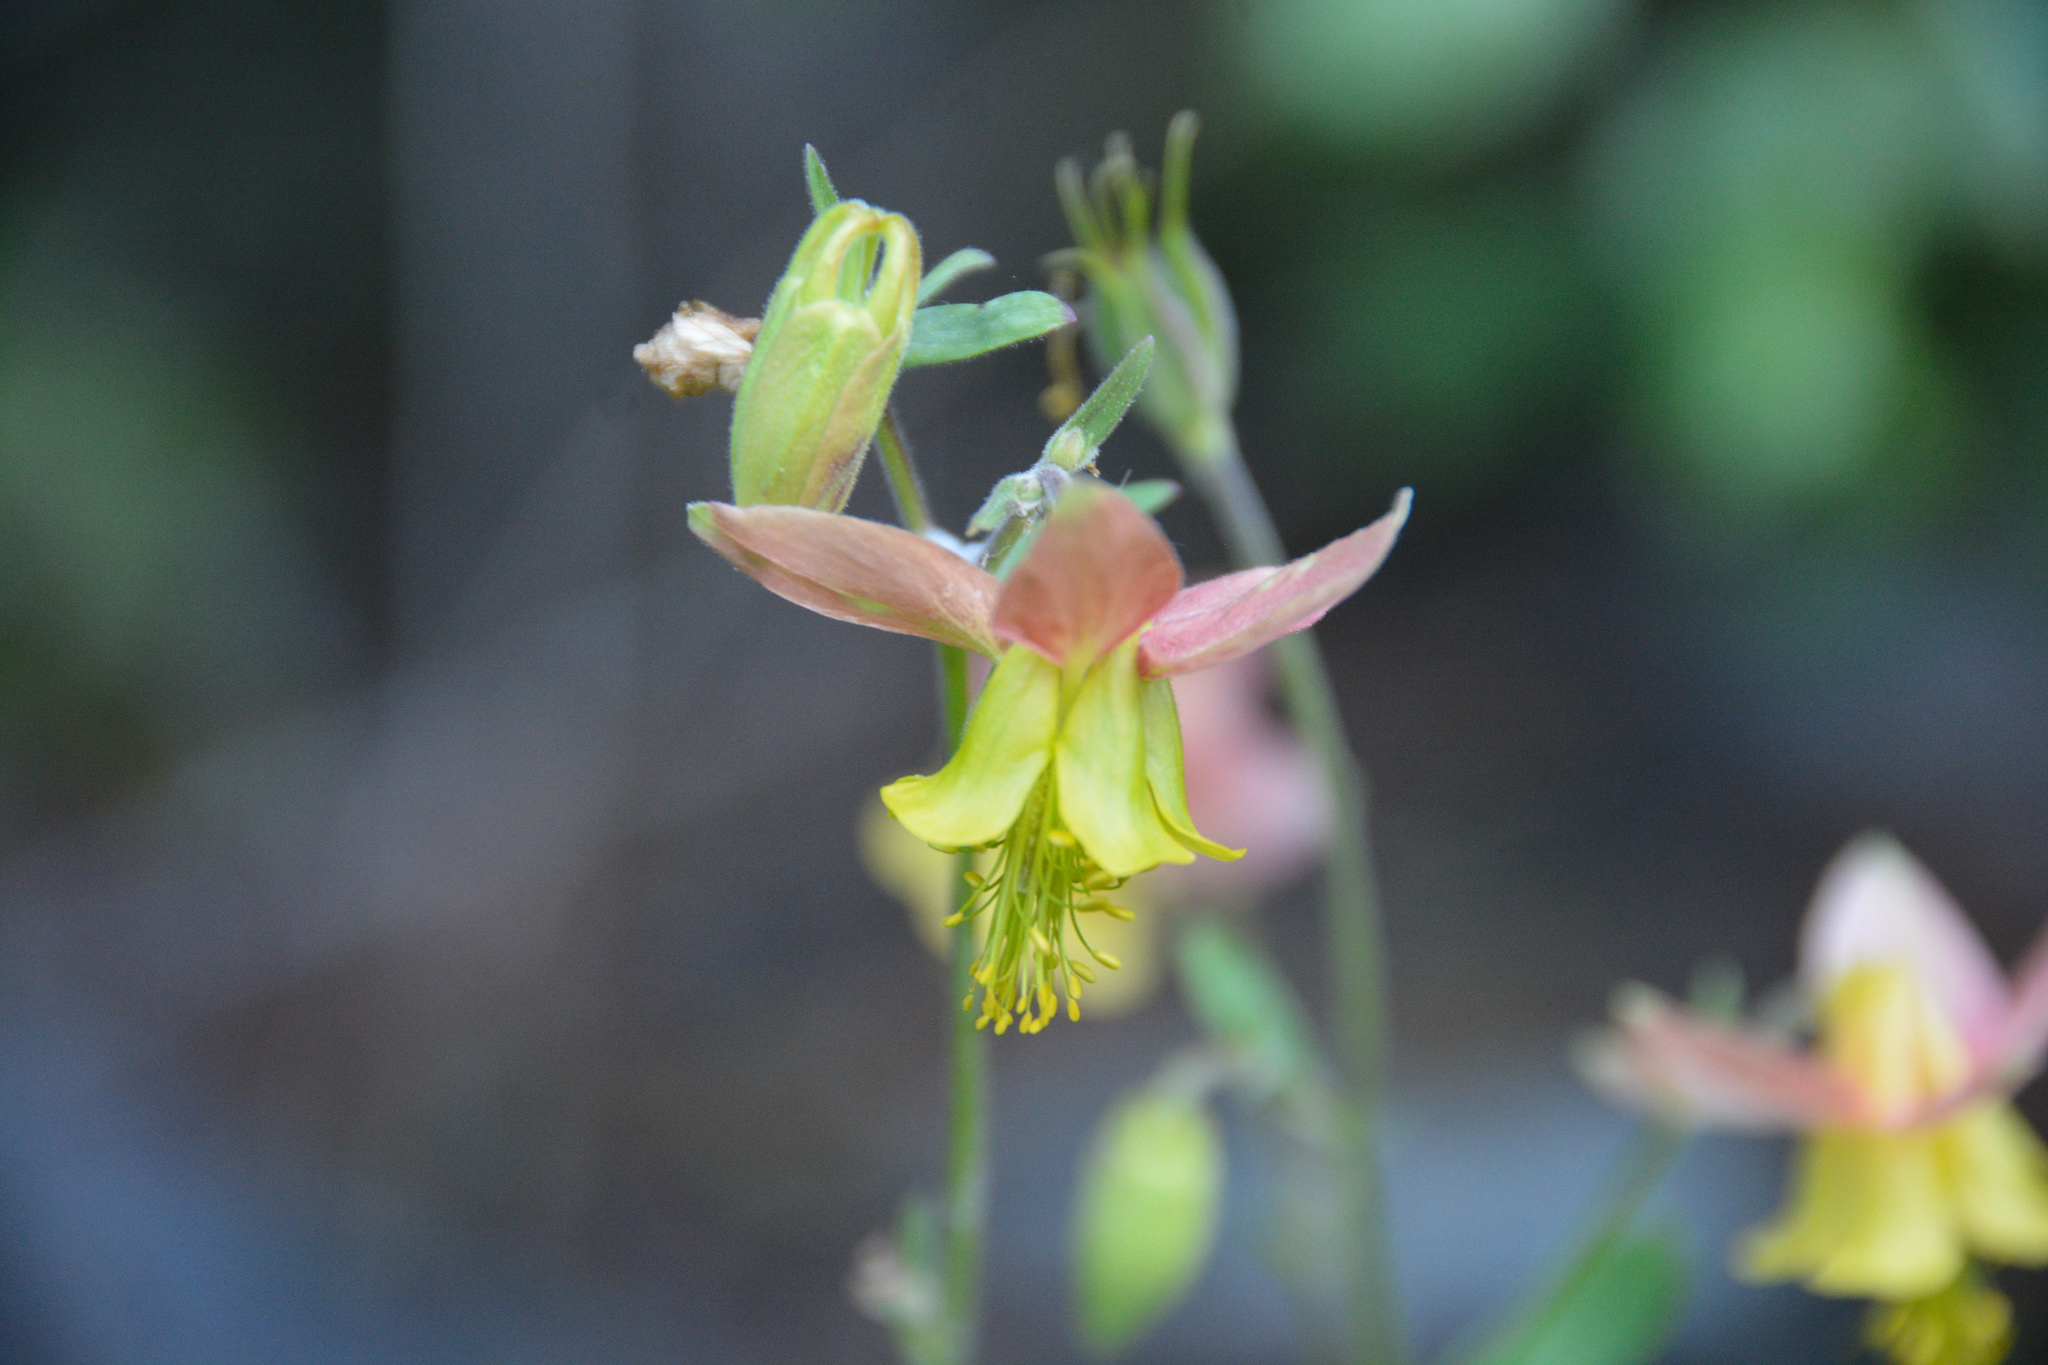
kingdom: Plantae
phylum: Tracheophyta
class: Magnoliopsida
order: Ranunculales
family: Ranunculaceae
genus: Aquilegia
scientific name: Aquilegia
